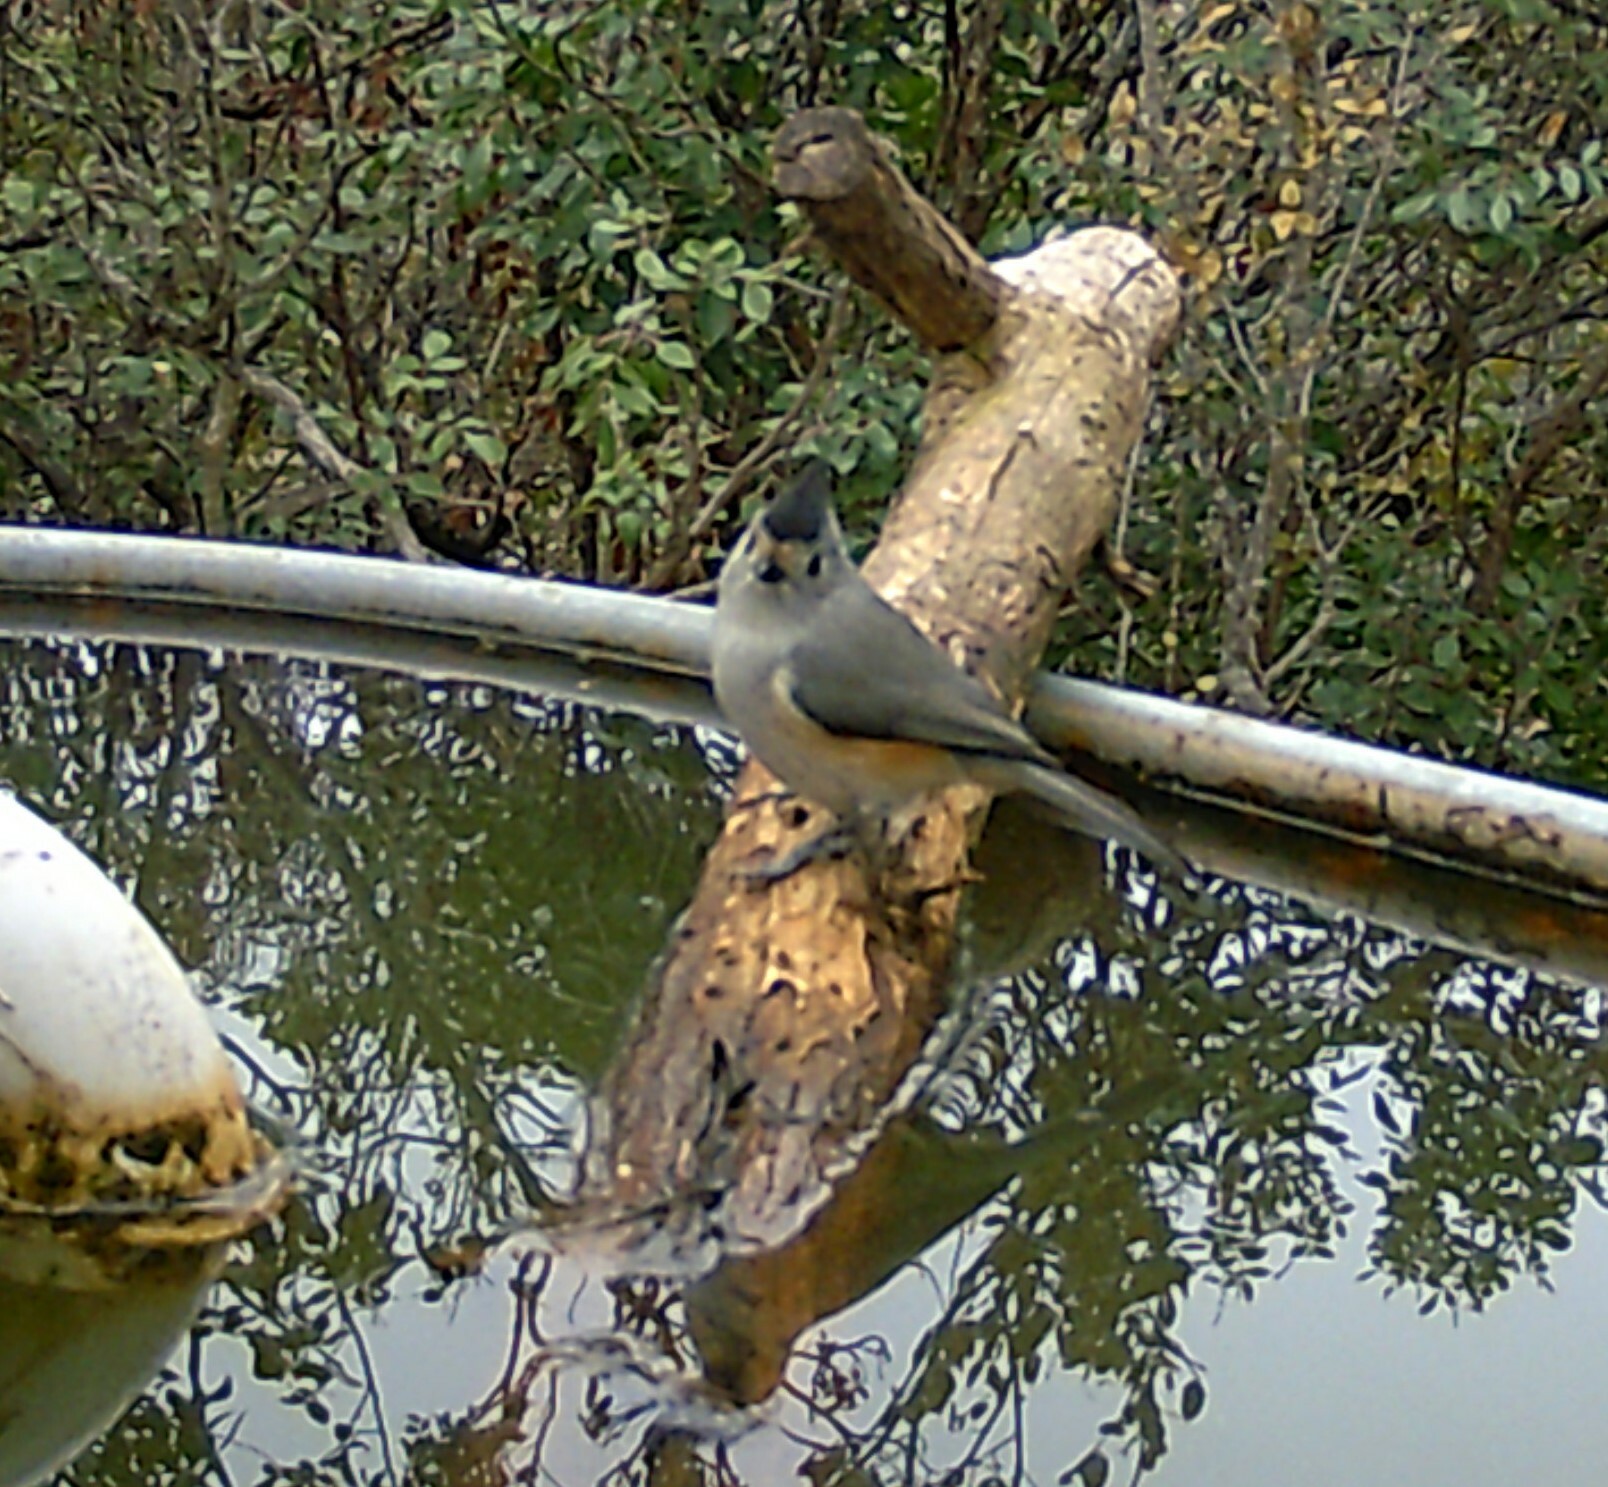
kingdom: Animalia
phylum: Chordata
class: Aves
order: Passeriformes
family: Paridae
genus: Baeolophus
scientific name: Baeolophus atricristatus
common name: Black-crested titmouse
